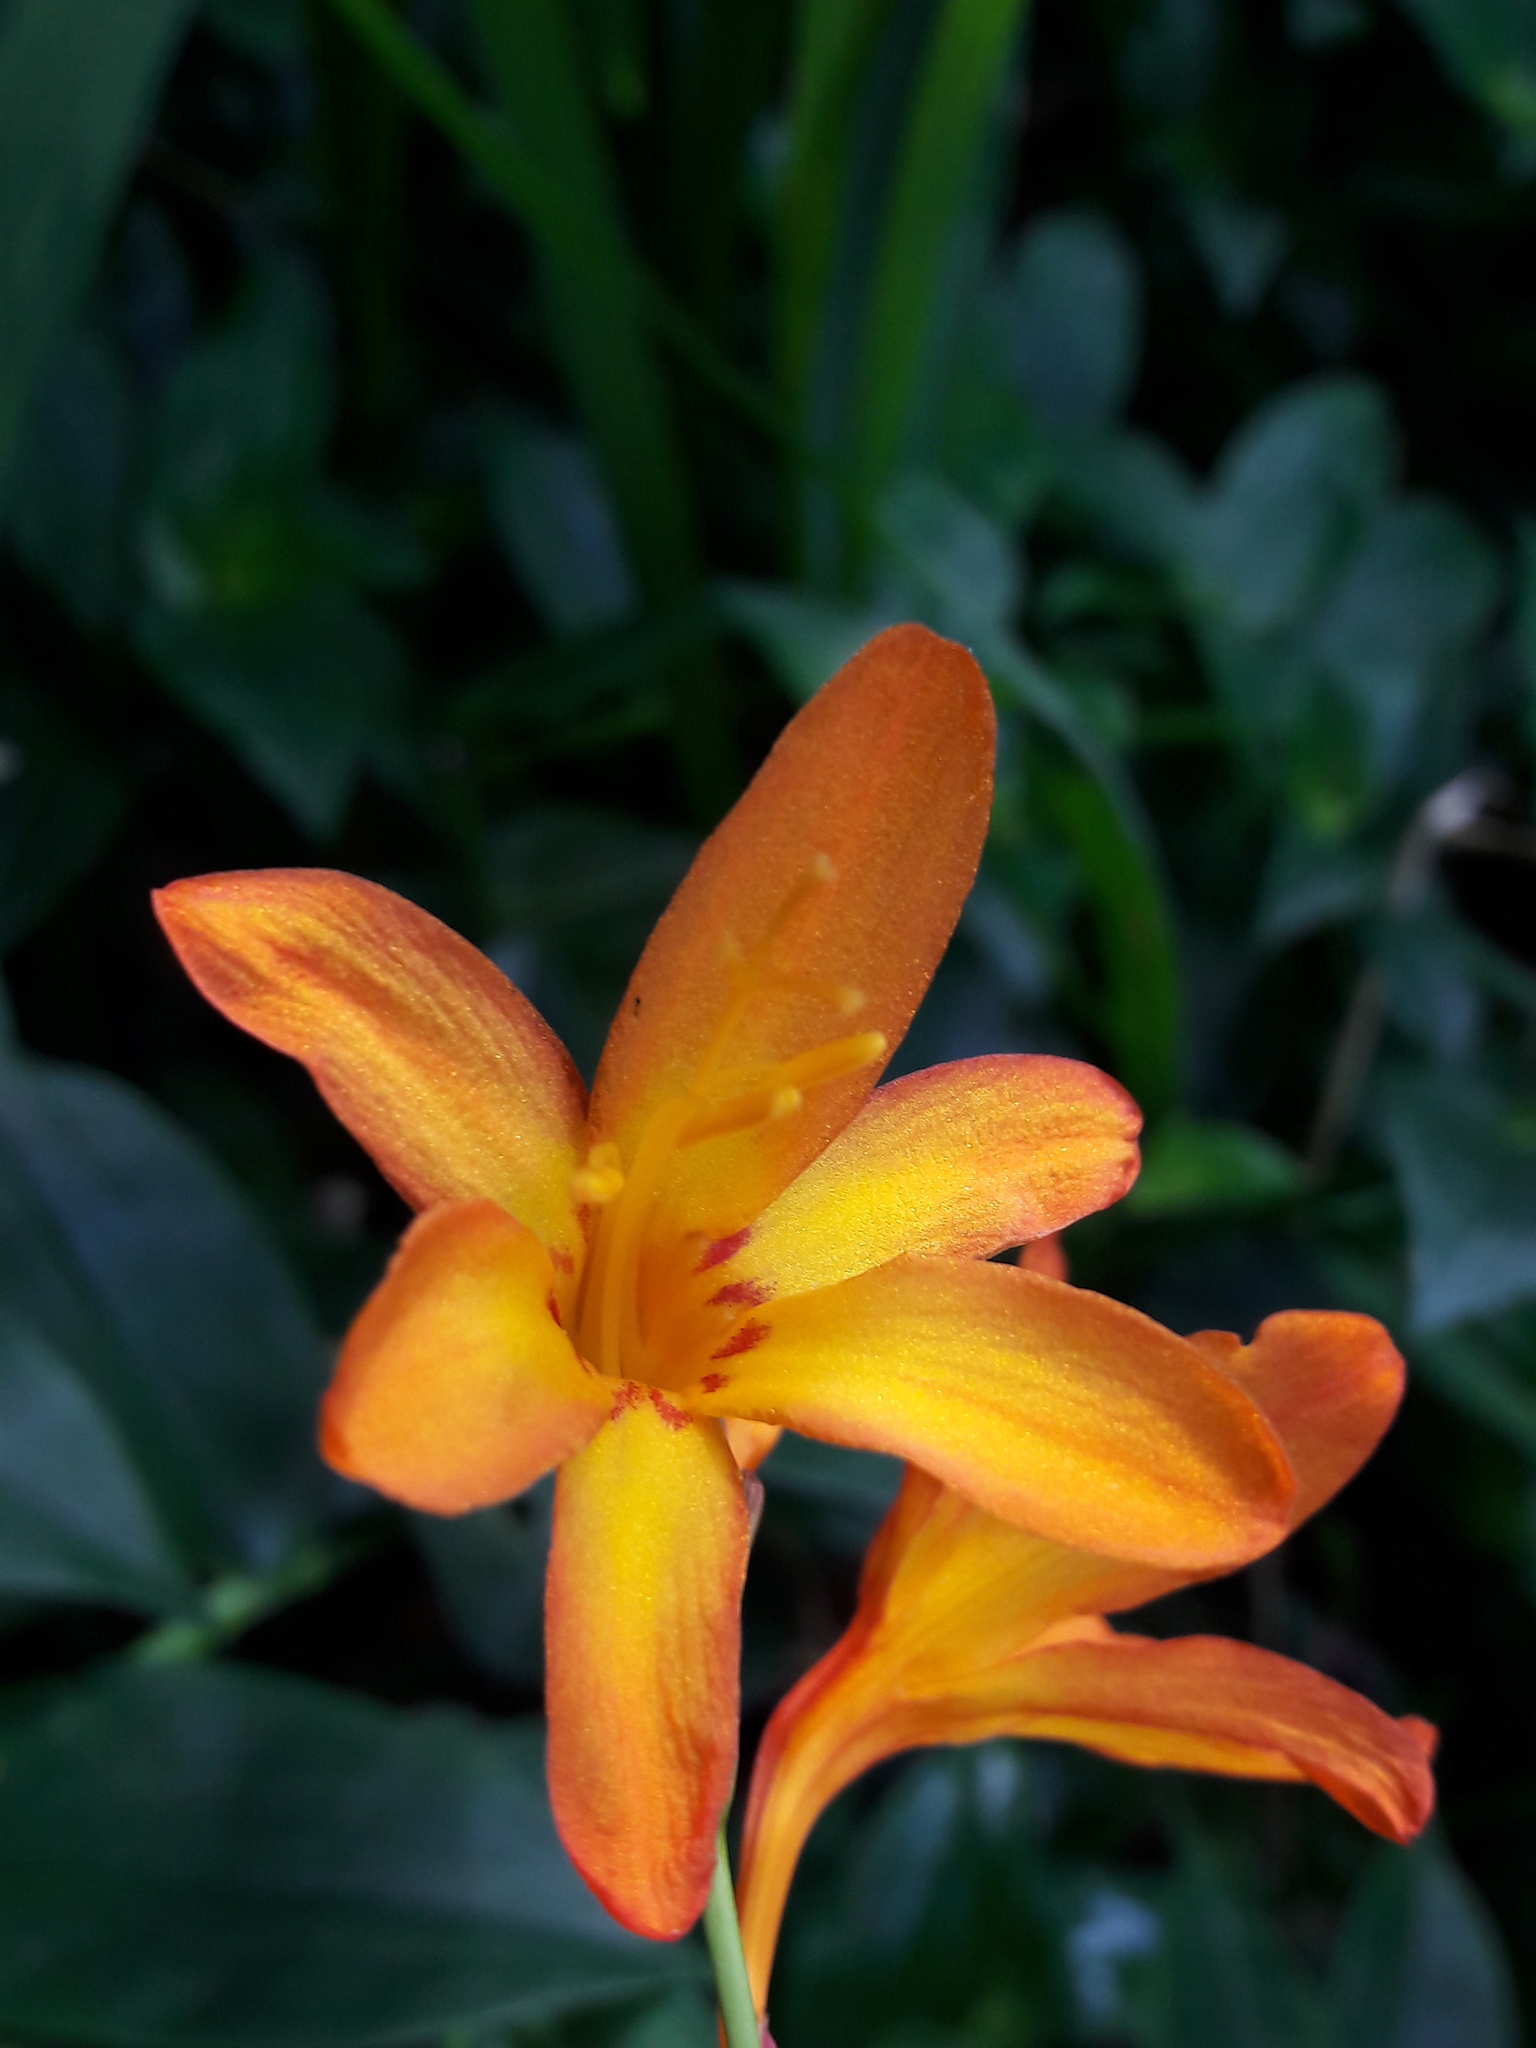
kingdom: Plantae
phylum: Tracheophyta
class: Liliopsida
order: Asparagales
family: Iridaceae
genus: Crocosmia
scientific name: Crocosmia crocosmiiflora
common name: Montbretia
